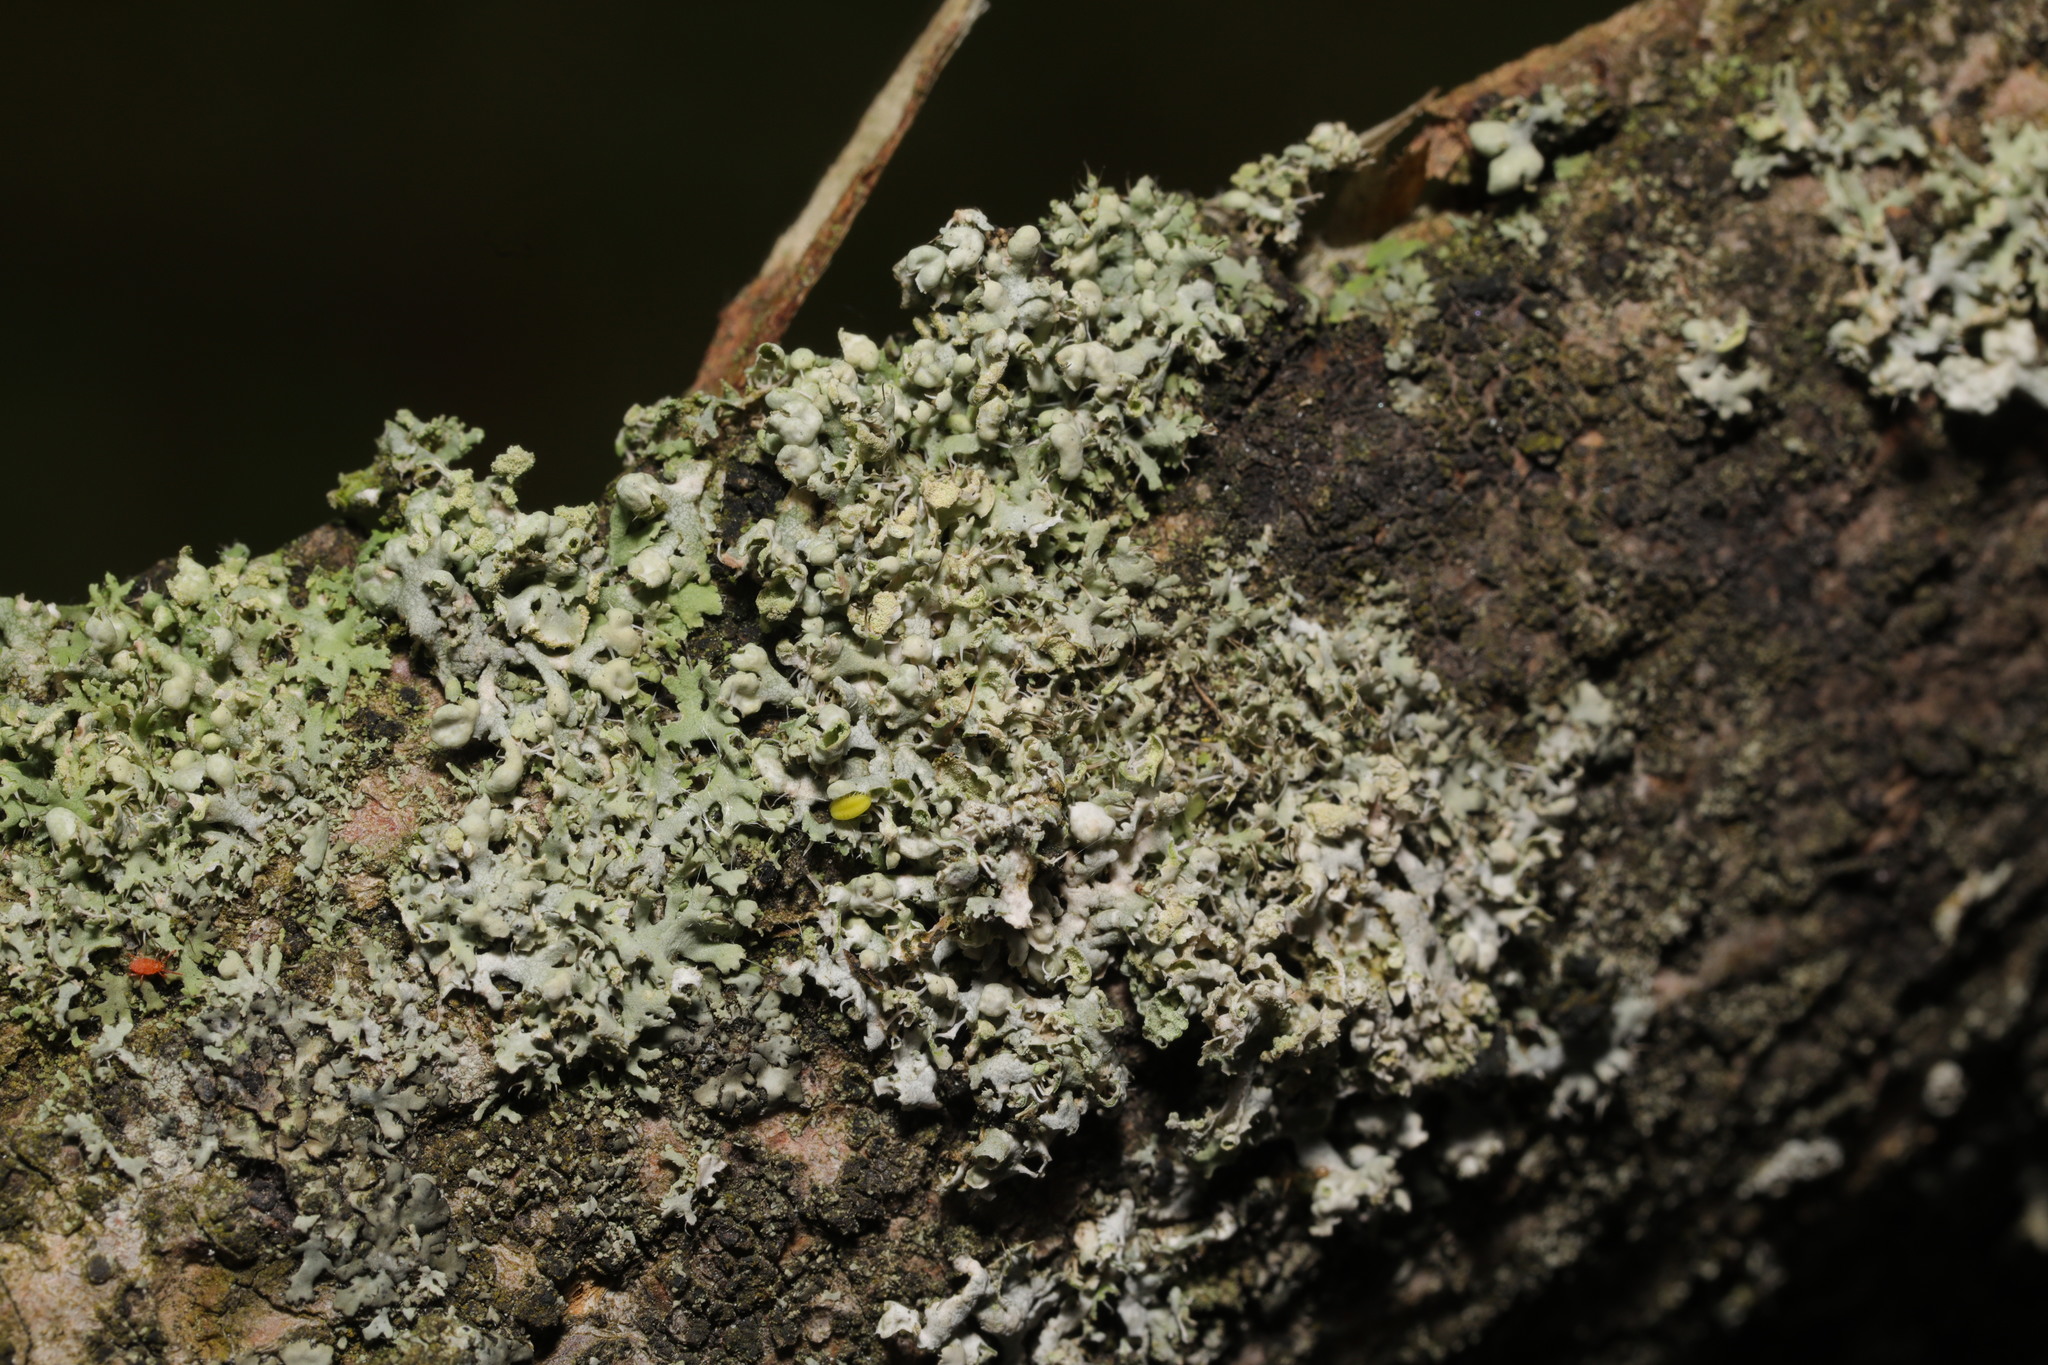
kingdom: Fungi
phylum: Ascomycota
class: Lecanoromycetes
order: Caliciales
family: Physciaceae
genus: Physcia
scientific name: Physcia adscendens
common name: Hooded rosette lichen
